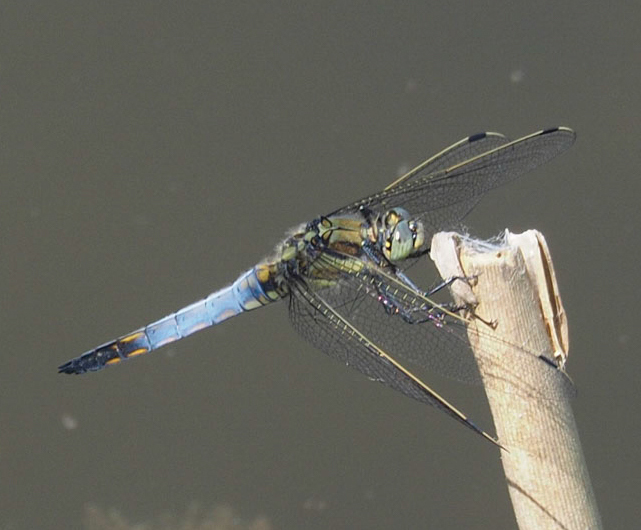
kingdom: Animalia
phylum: Arthropoda
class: Insecta
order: Odonata
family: Libellulidae
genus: Orthetrum
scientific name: Orthetrum cancellatum
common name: Black-tailed skimmer
